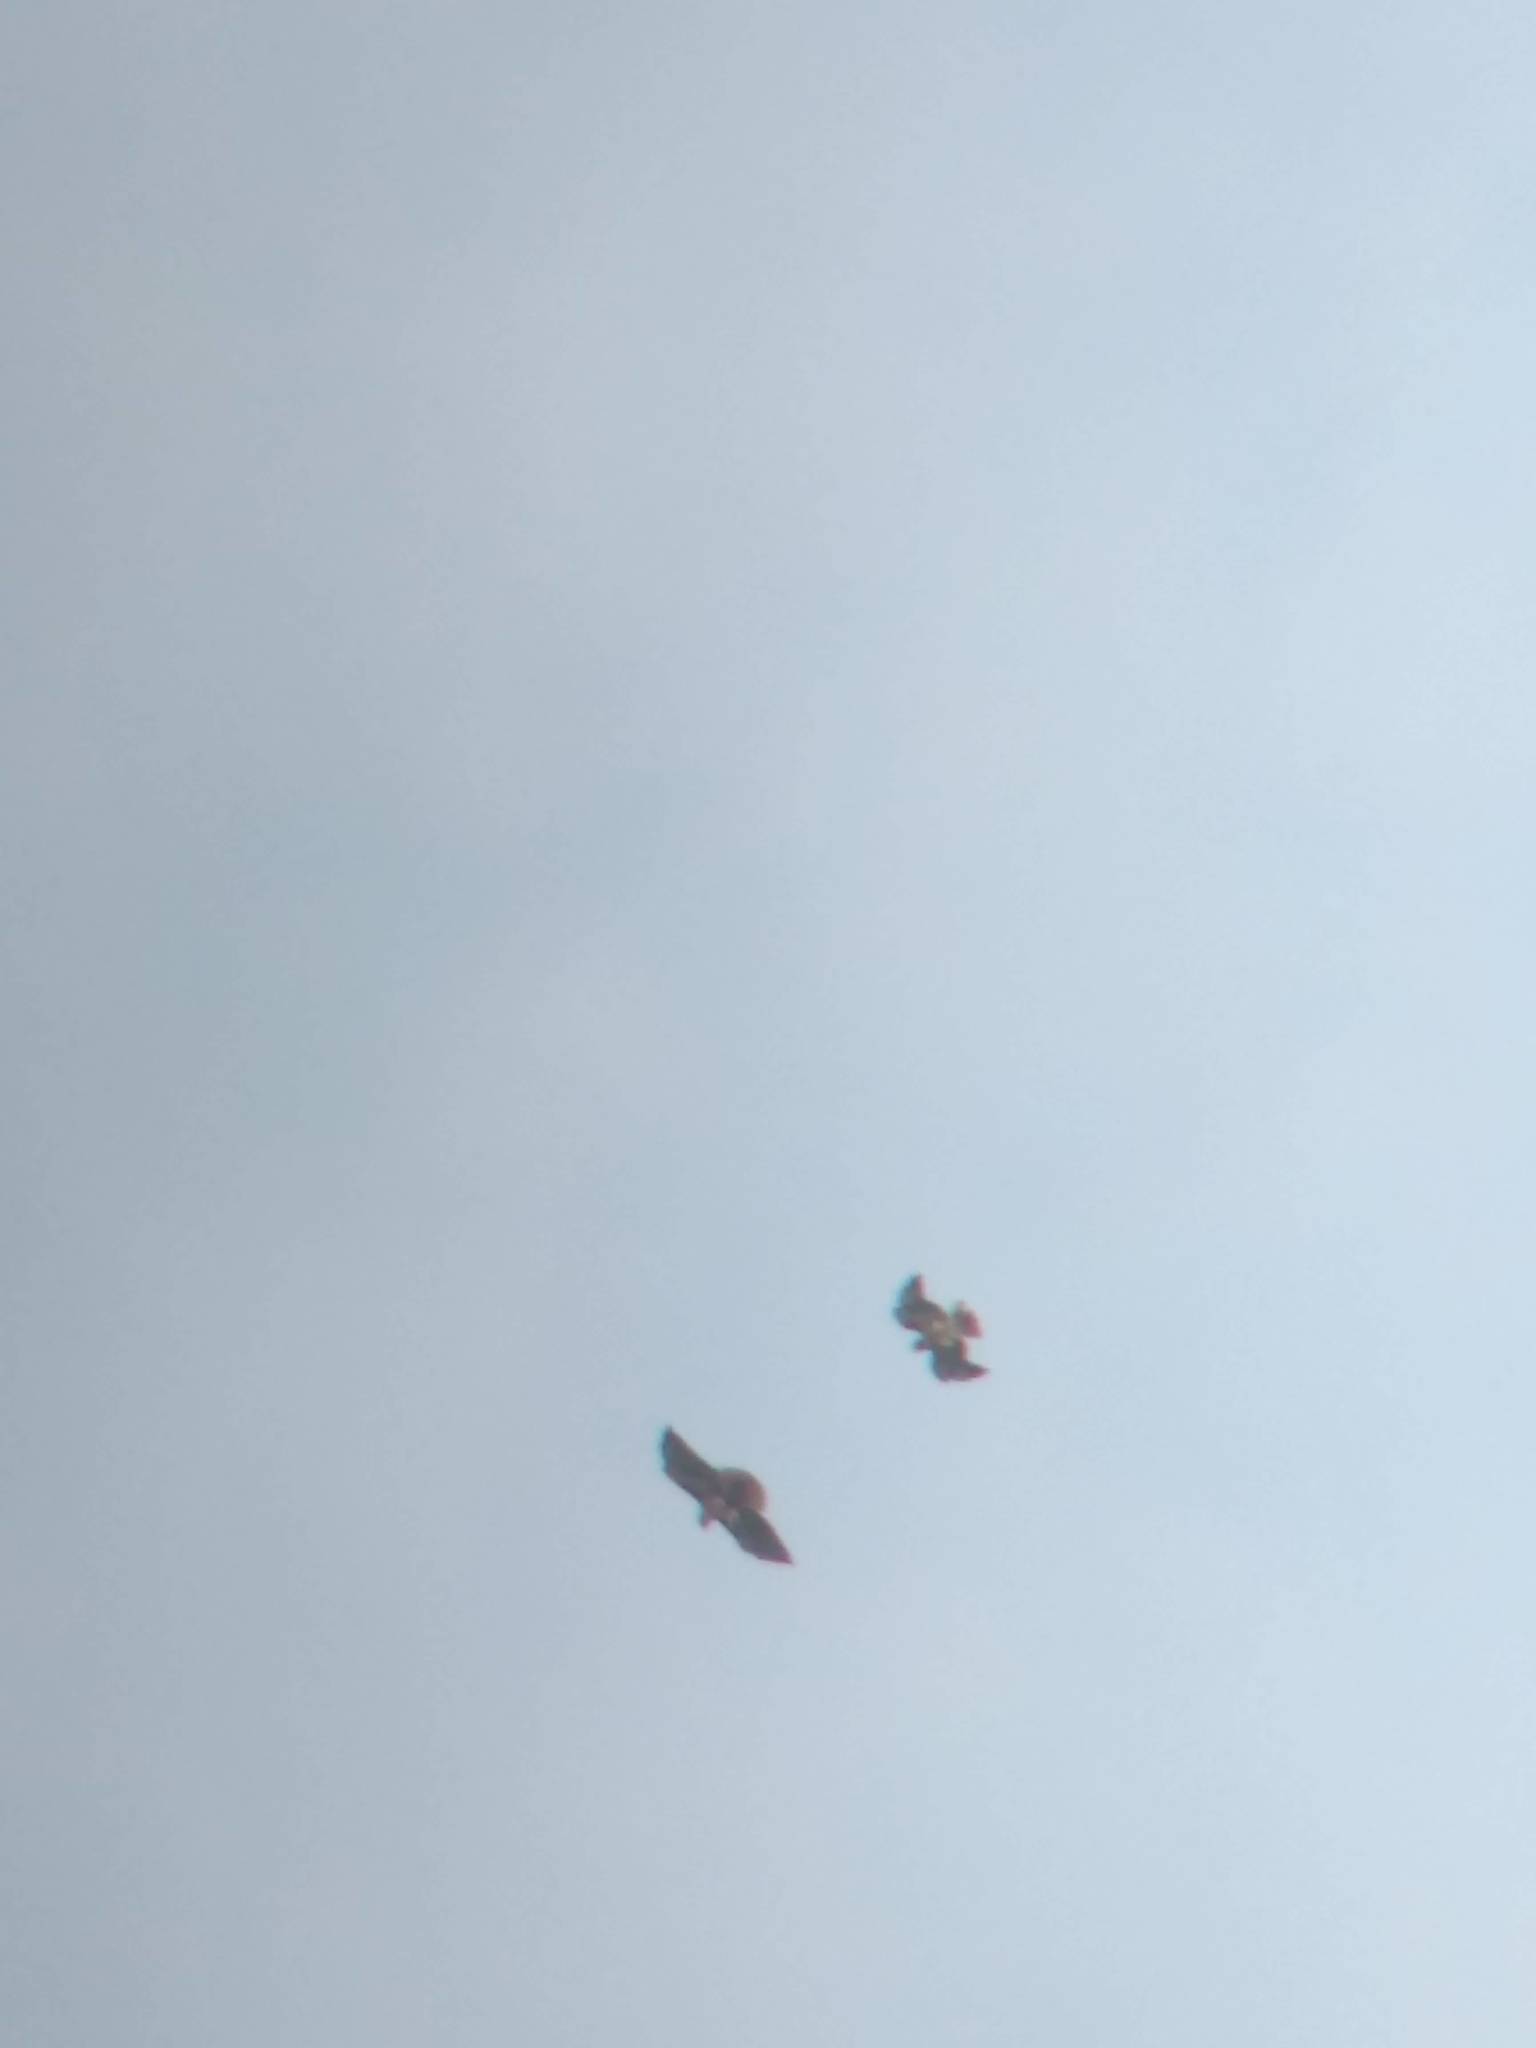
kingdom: Animalia
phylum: Chordata
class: Aves
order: Accipitriformes
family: Accipitridae
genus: Buteo
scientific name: Buteo jamaicensis
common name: Red-tailed hawk
